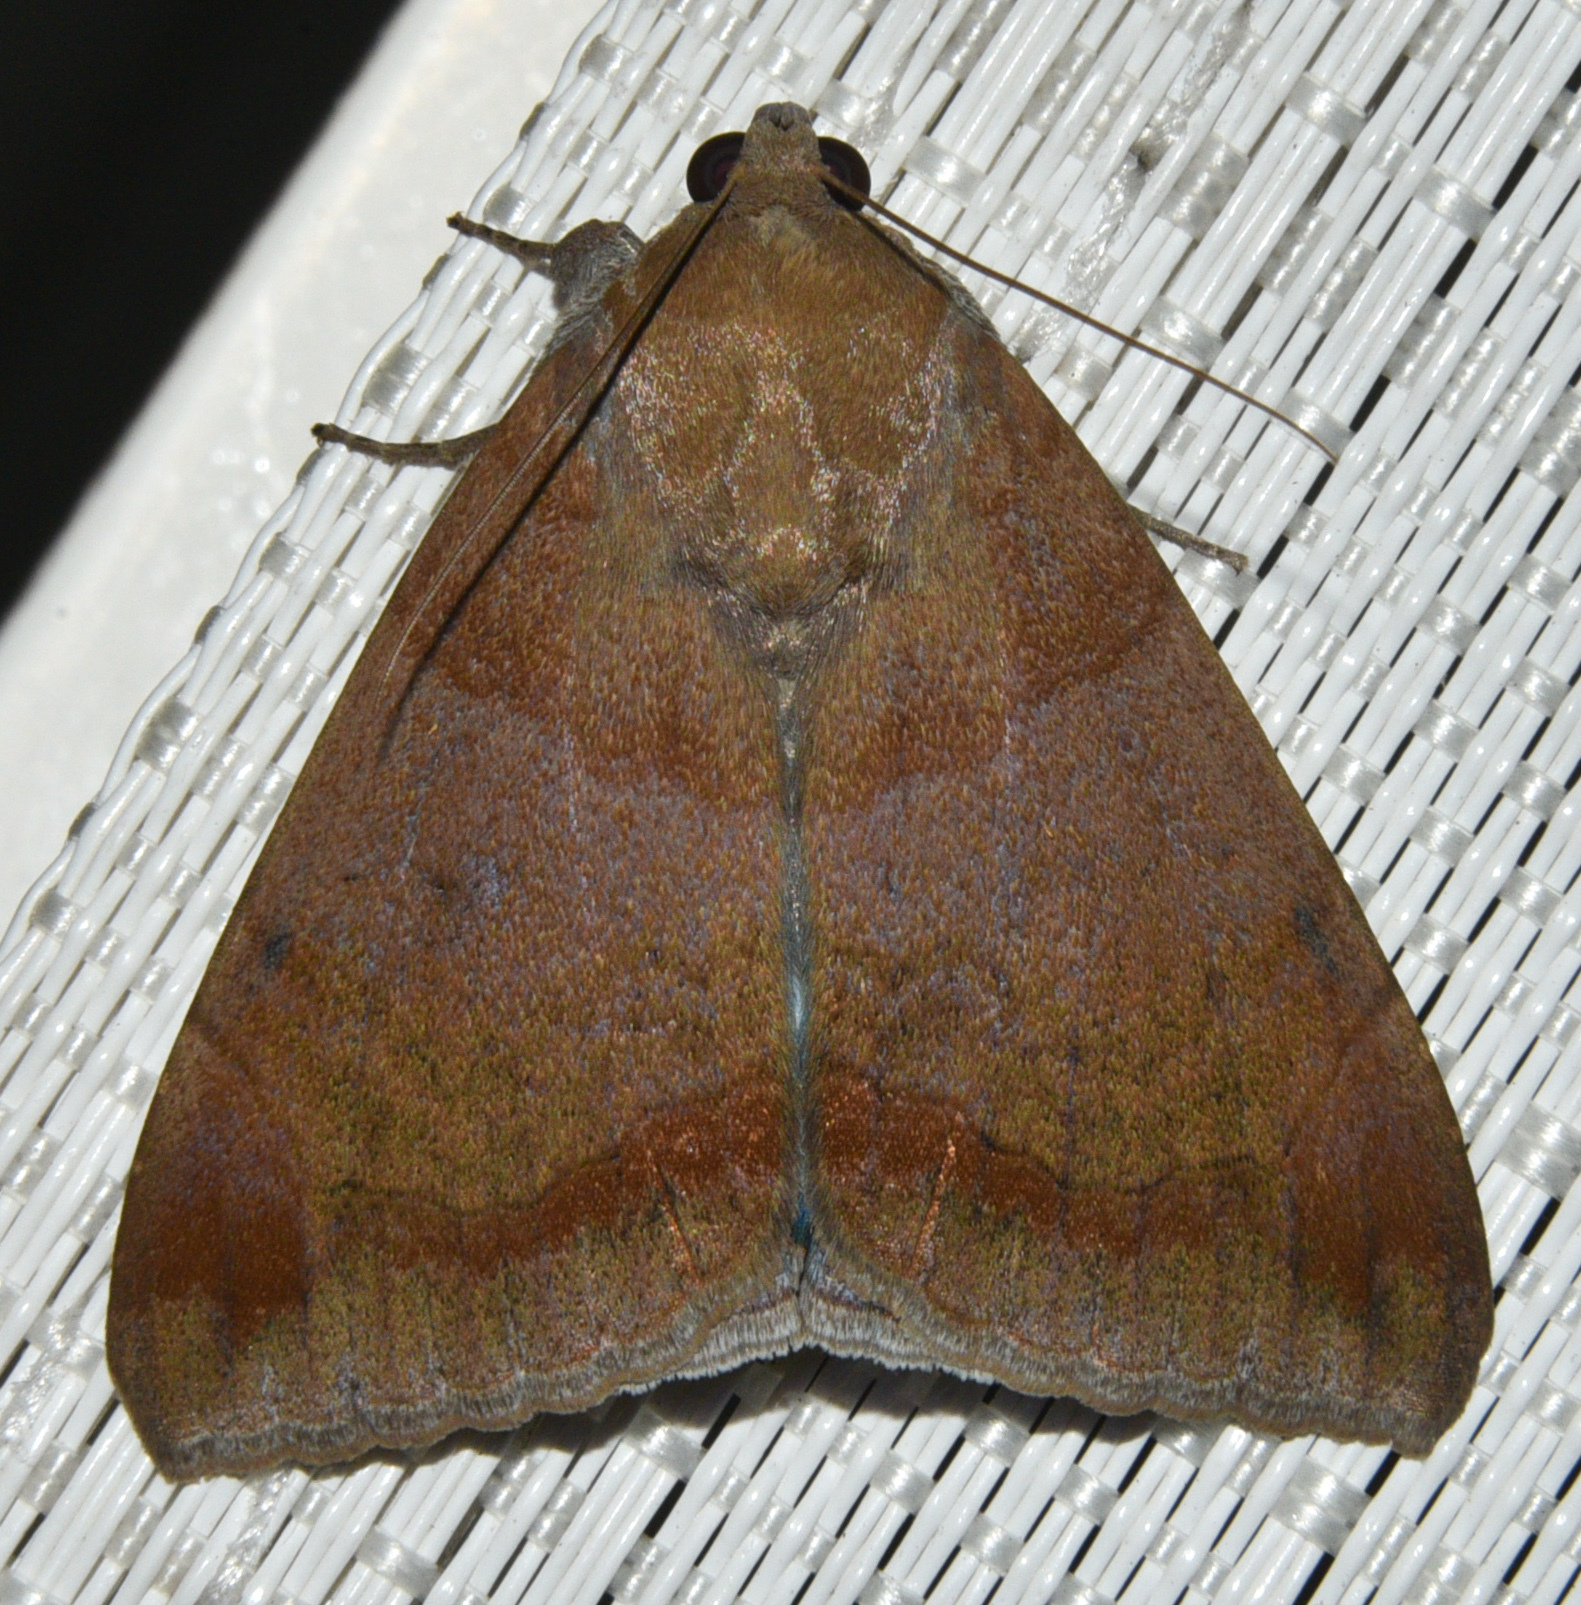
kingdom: Animalia
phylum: Arthropoda
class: Insecta
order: Lepidoptera
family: Erebidae
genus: Achaea
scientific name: Achaea janata
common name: Croton caterpillar
